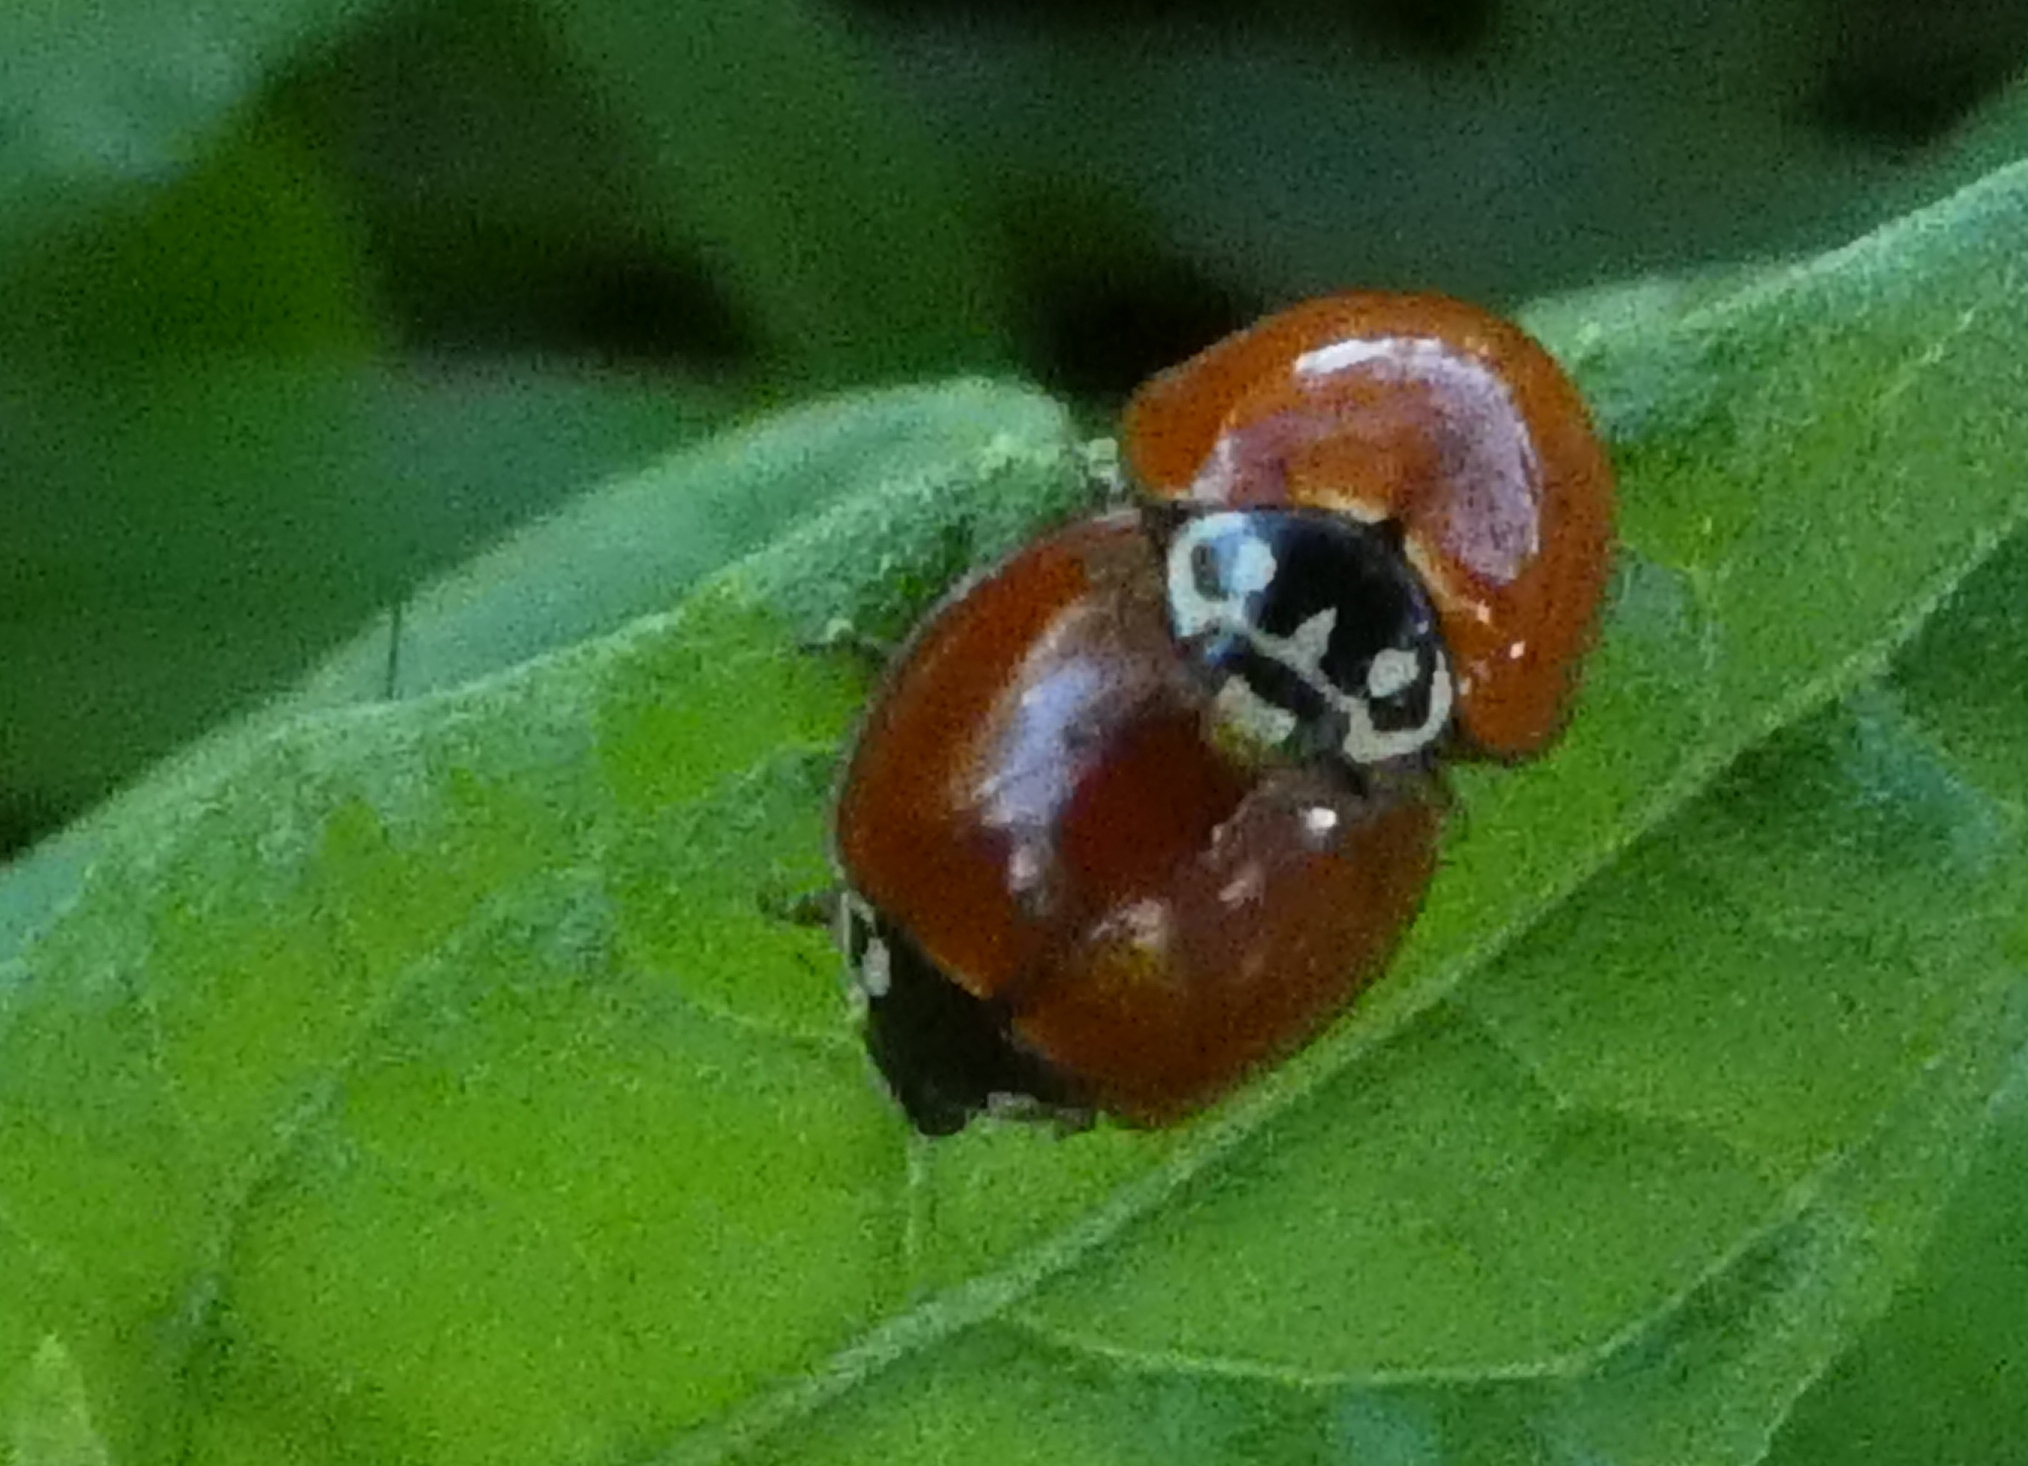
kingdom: Animalia
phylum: Arthropoda
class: Insecta
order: Coleoptera
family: Coccinellidae
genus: Cycloneda
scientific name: Cycloneda sanguinea
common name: Ladybird beetle
